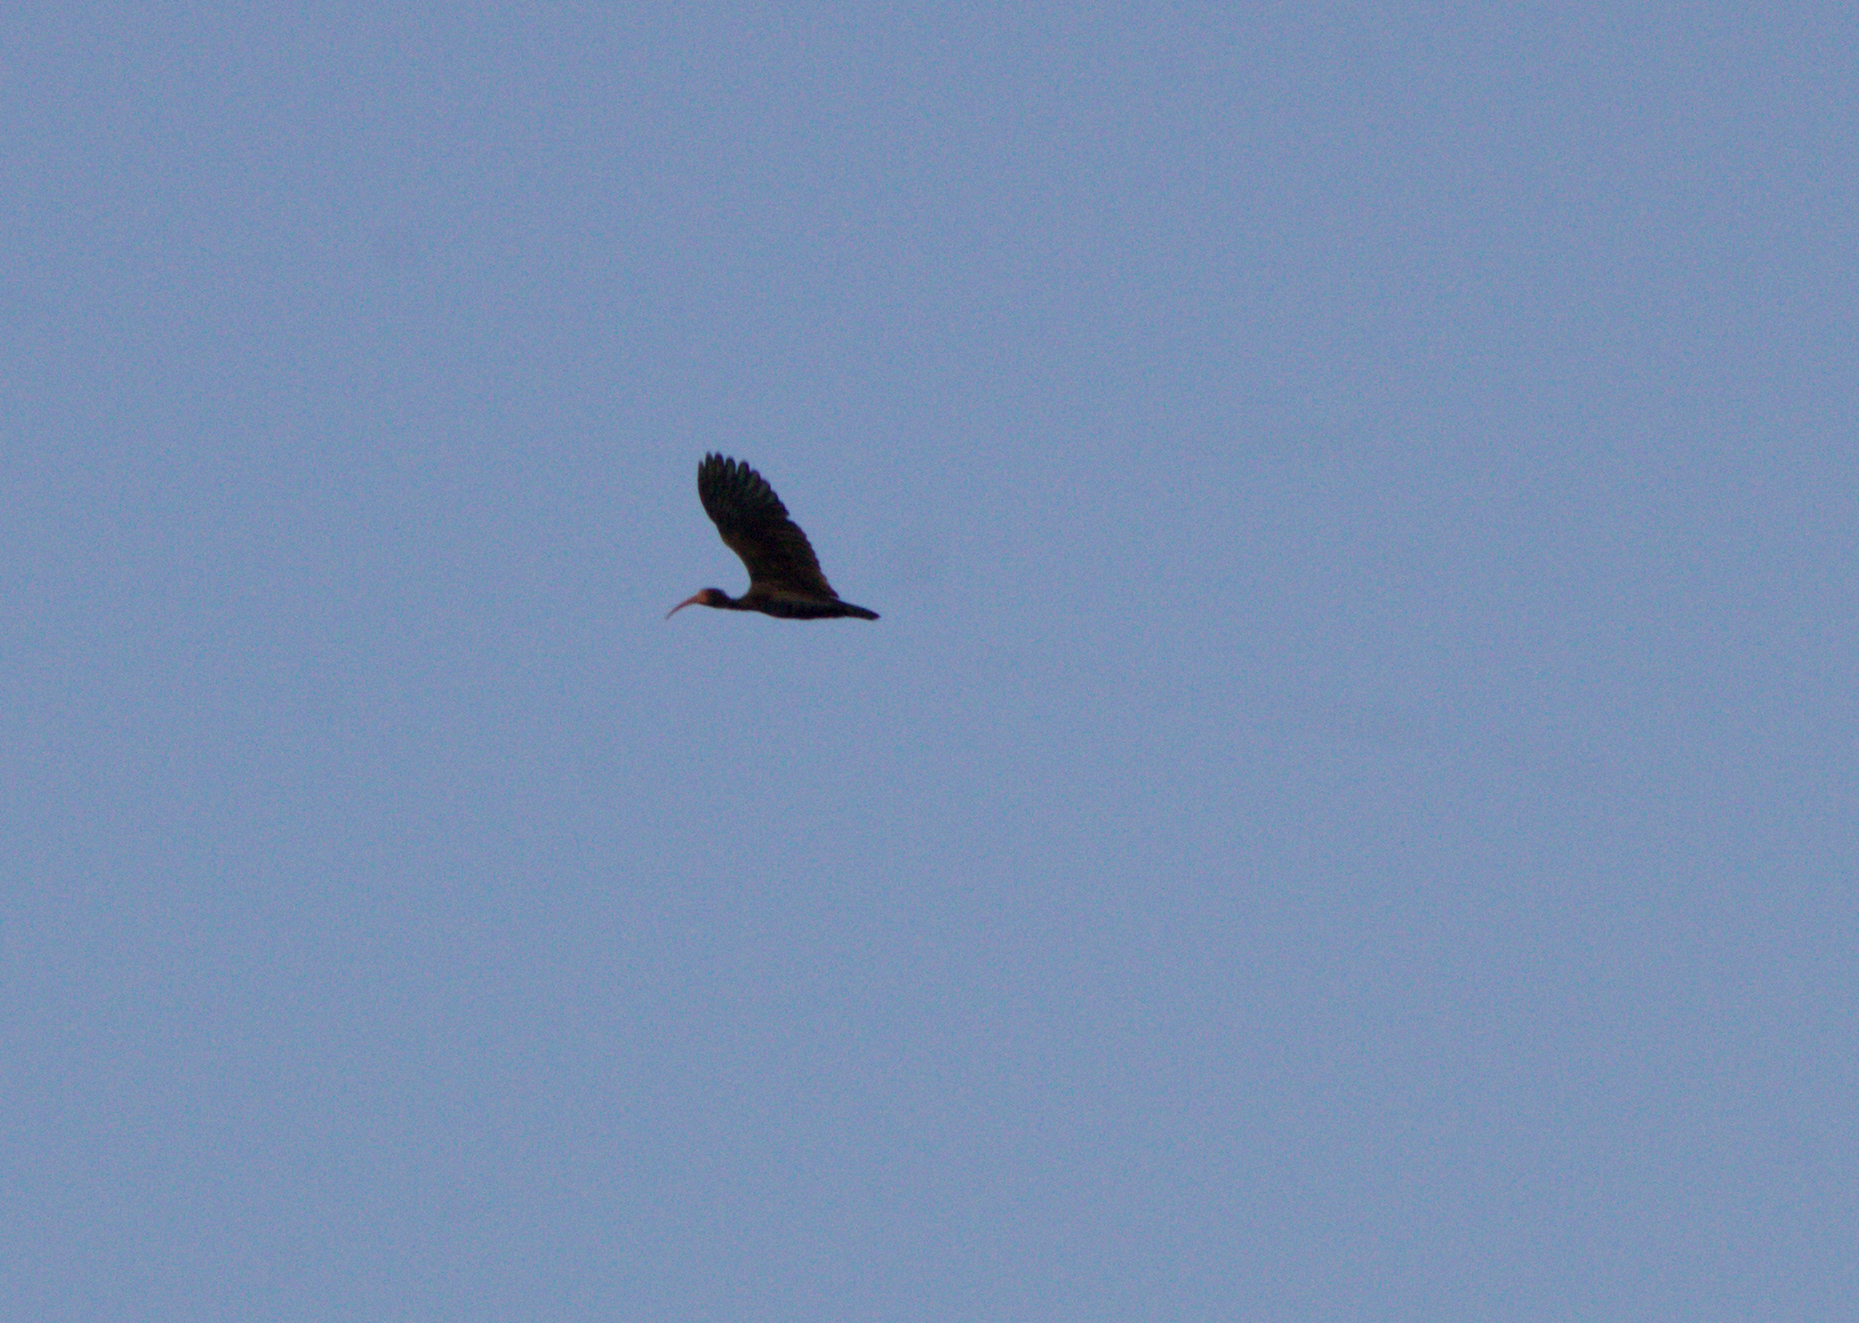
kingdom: Animalia
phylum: Chordata
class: Aves
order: Pelecaniformes
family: Threskiornithidae
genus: Phimosus
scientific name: Phimosus infuscatus
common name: Bare-faced ibis
